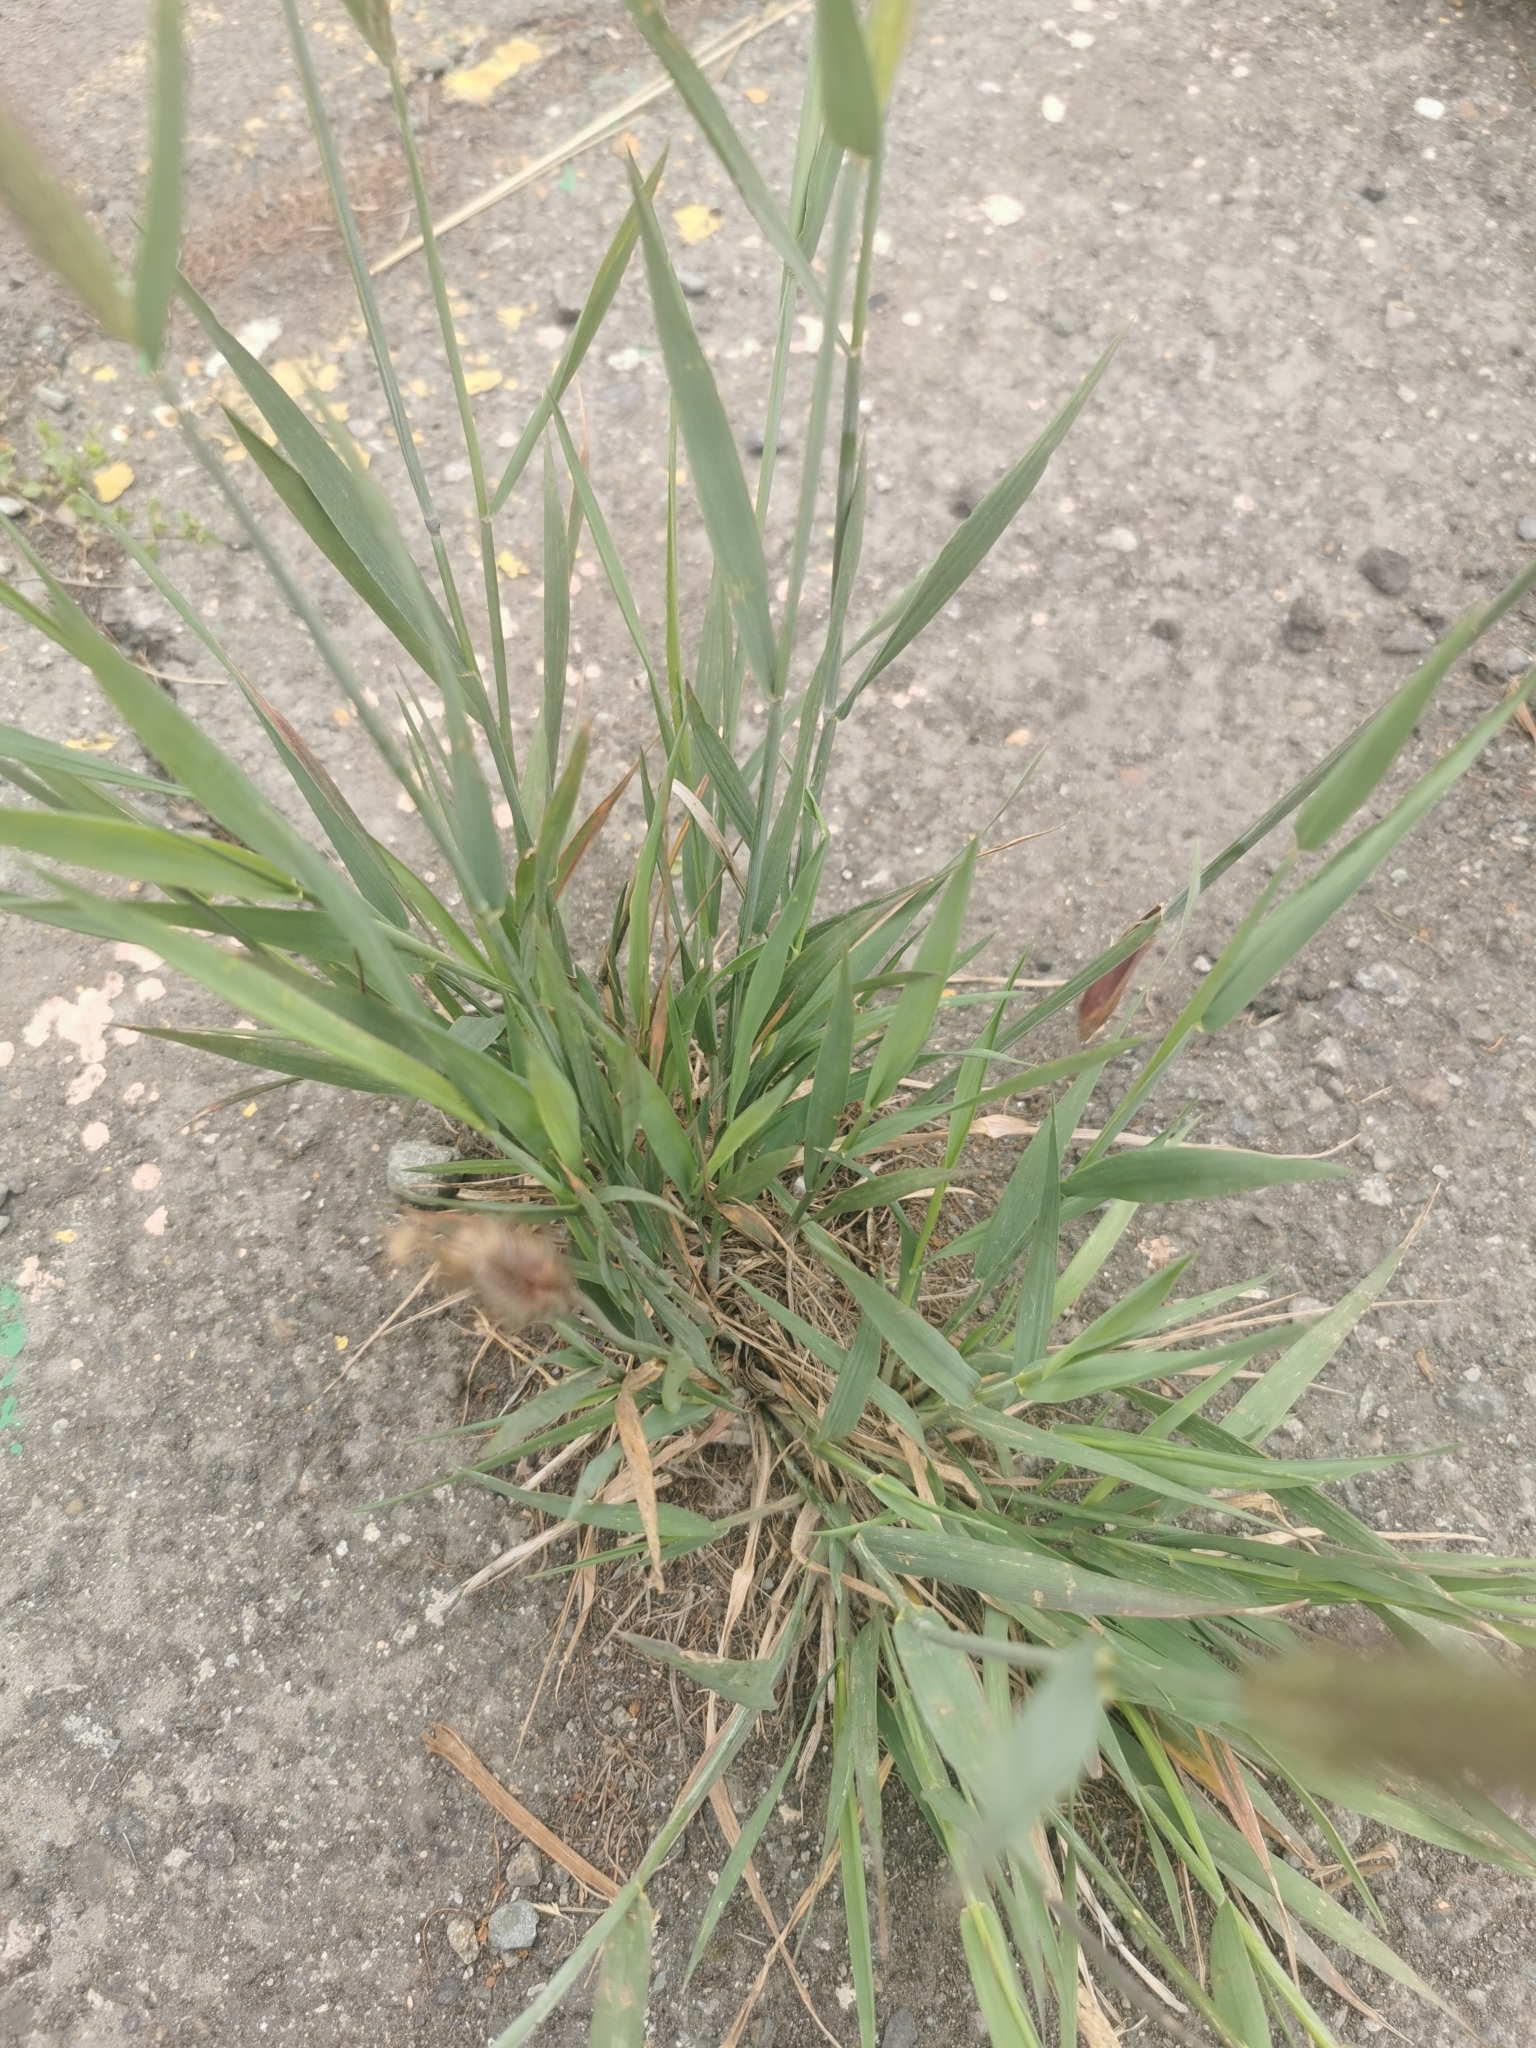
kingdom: Plantae
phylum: Tracheophyta
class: Liliopsida
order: Poales
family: Poaceae
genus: Hordeum
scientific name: Hordeum brachyantherum
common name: Meadow barley
